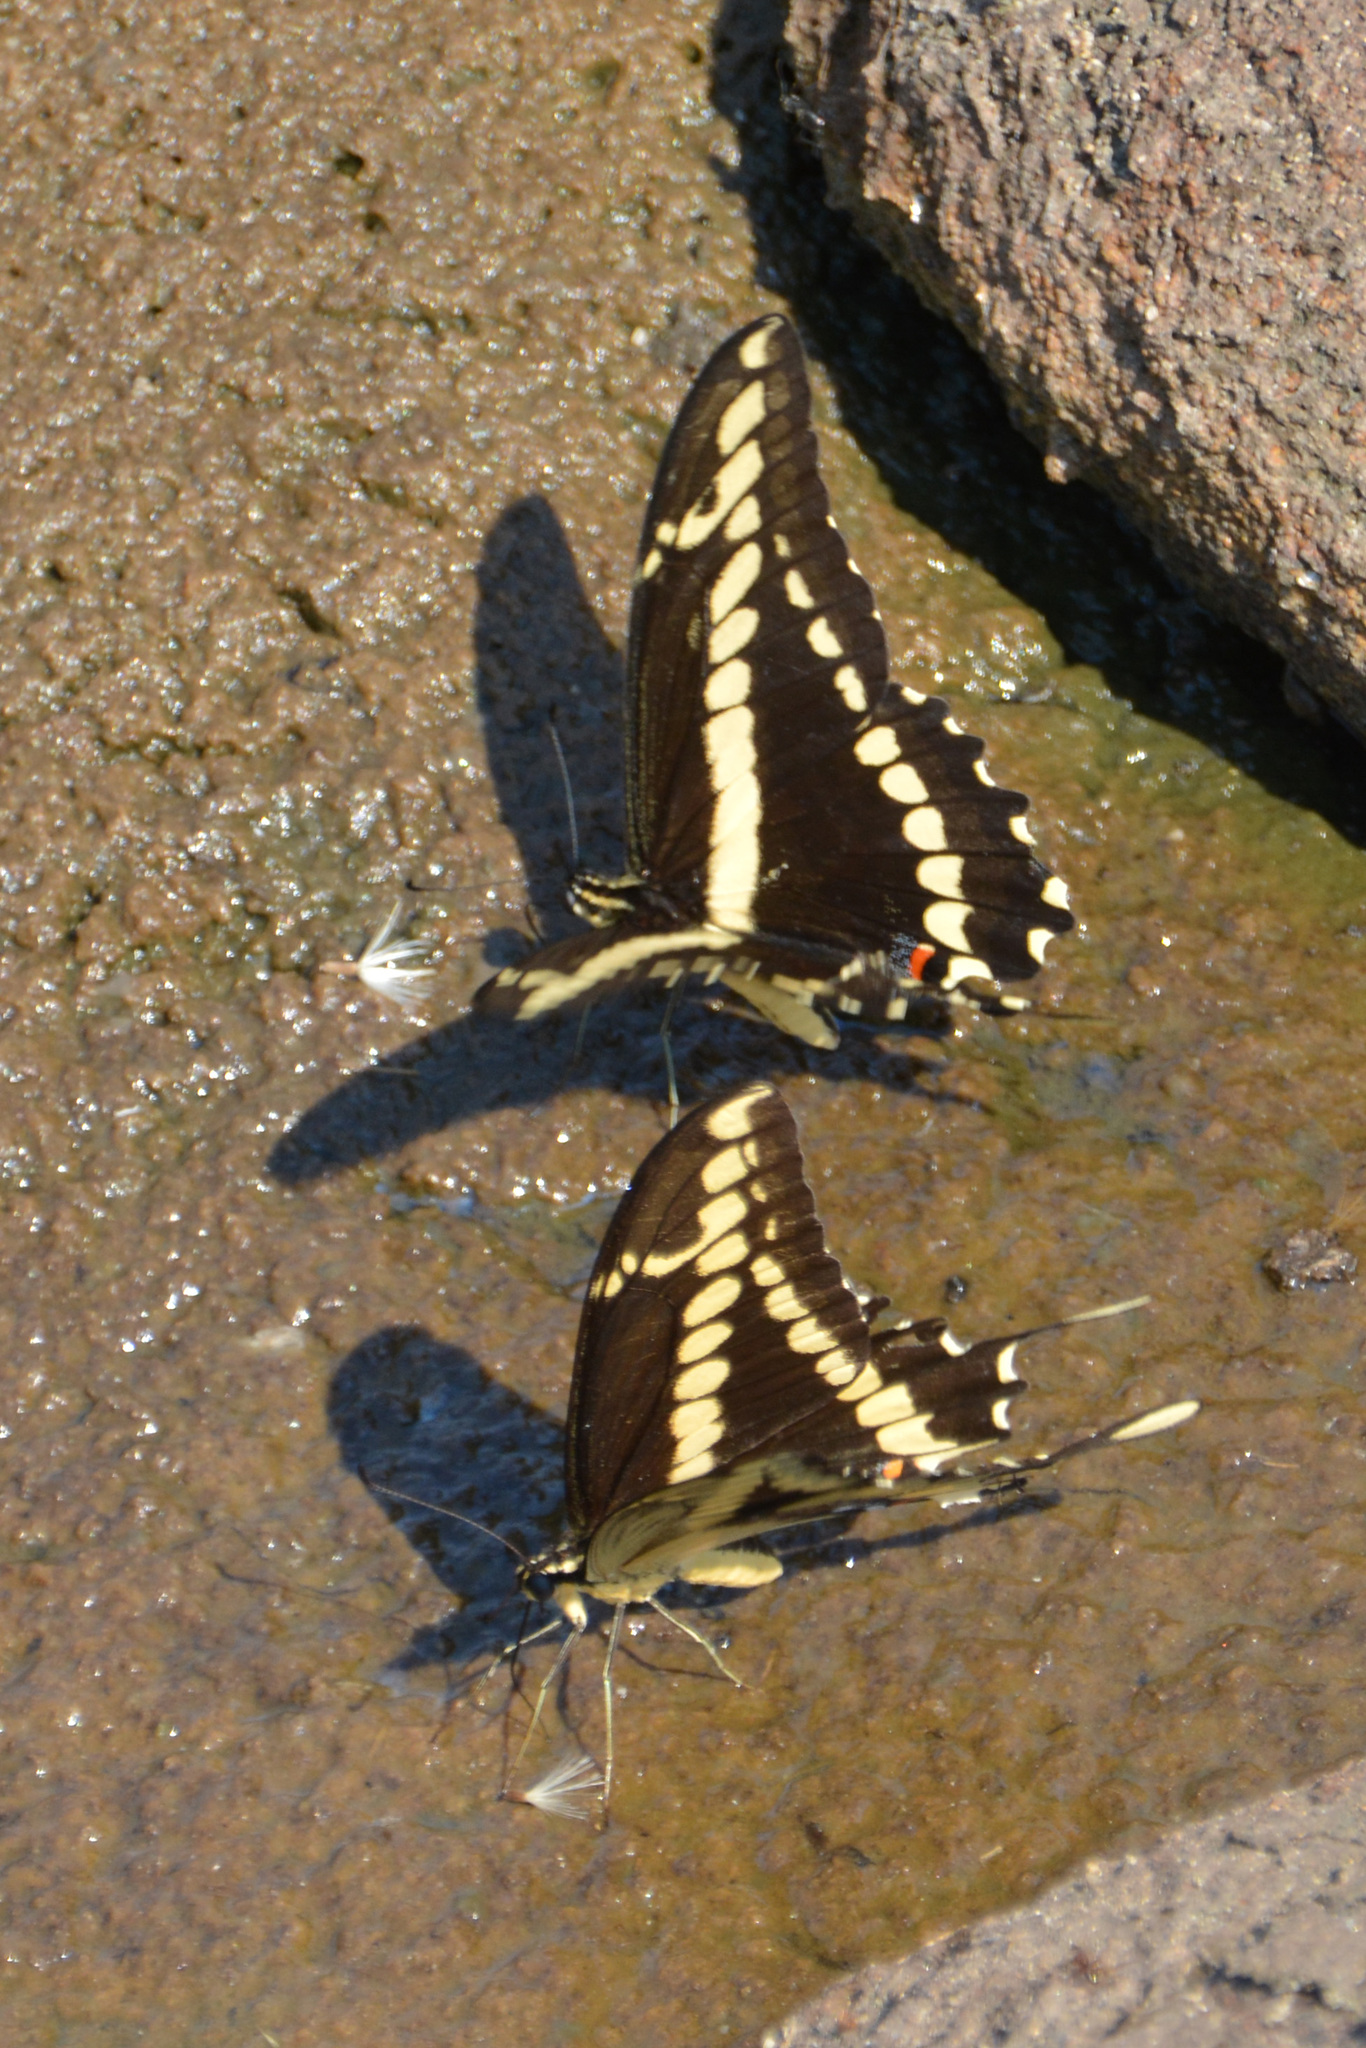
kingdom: Animalia
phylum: Arthropoda
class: Insecta
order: Lepidoptera
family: Papilionidae
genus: Papilio
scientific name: Papilio thoas
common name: King swallowtail
